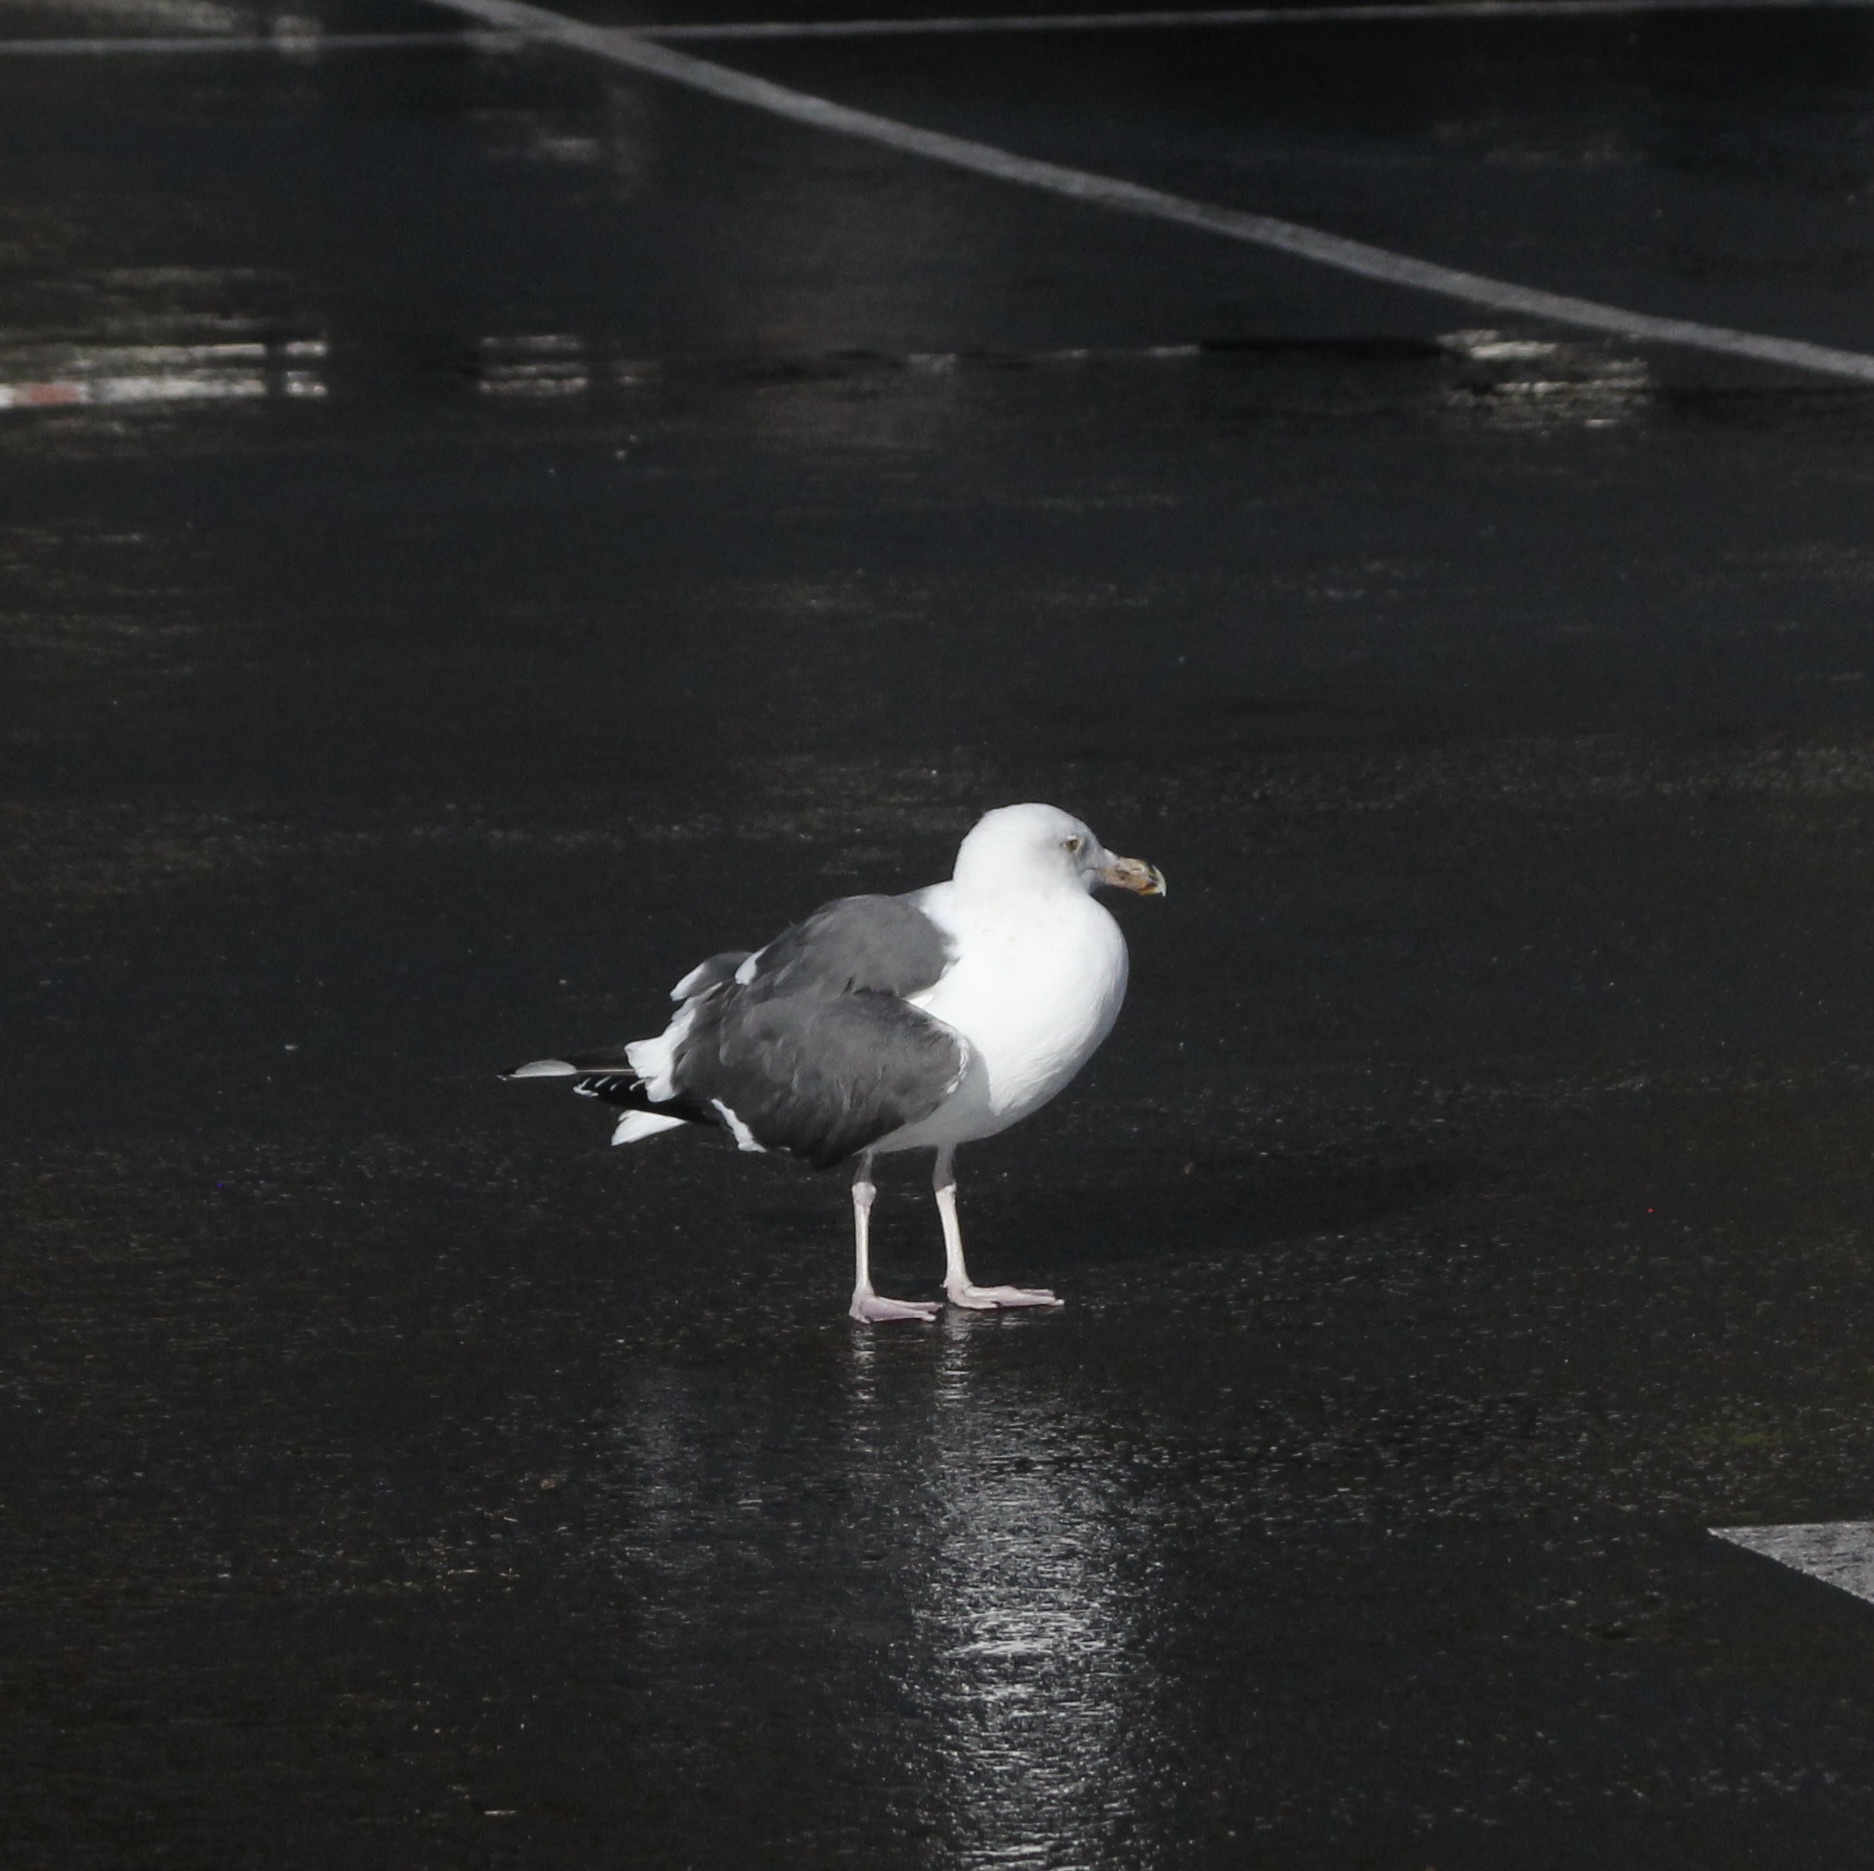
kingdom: Animalia
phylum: Chordata
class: Aves
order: Charadriiformes
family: Laridae
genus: Larus
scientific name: Larus occidentalis
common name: Western gull
